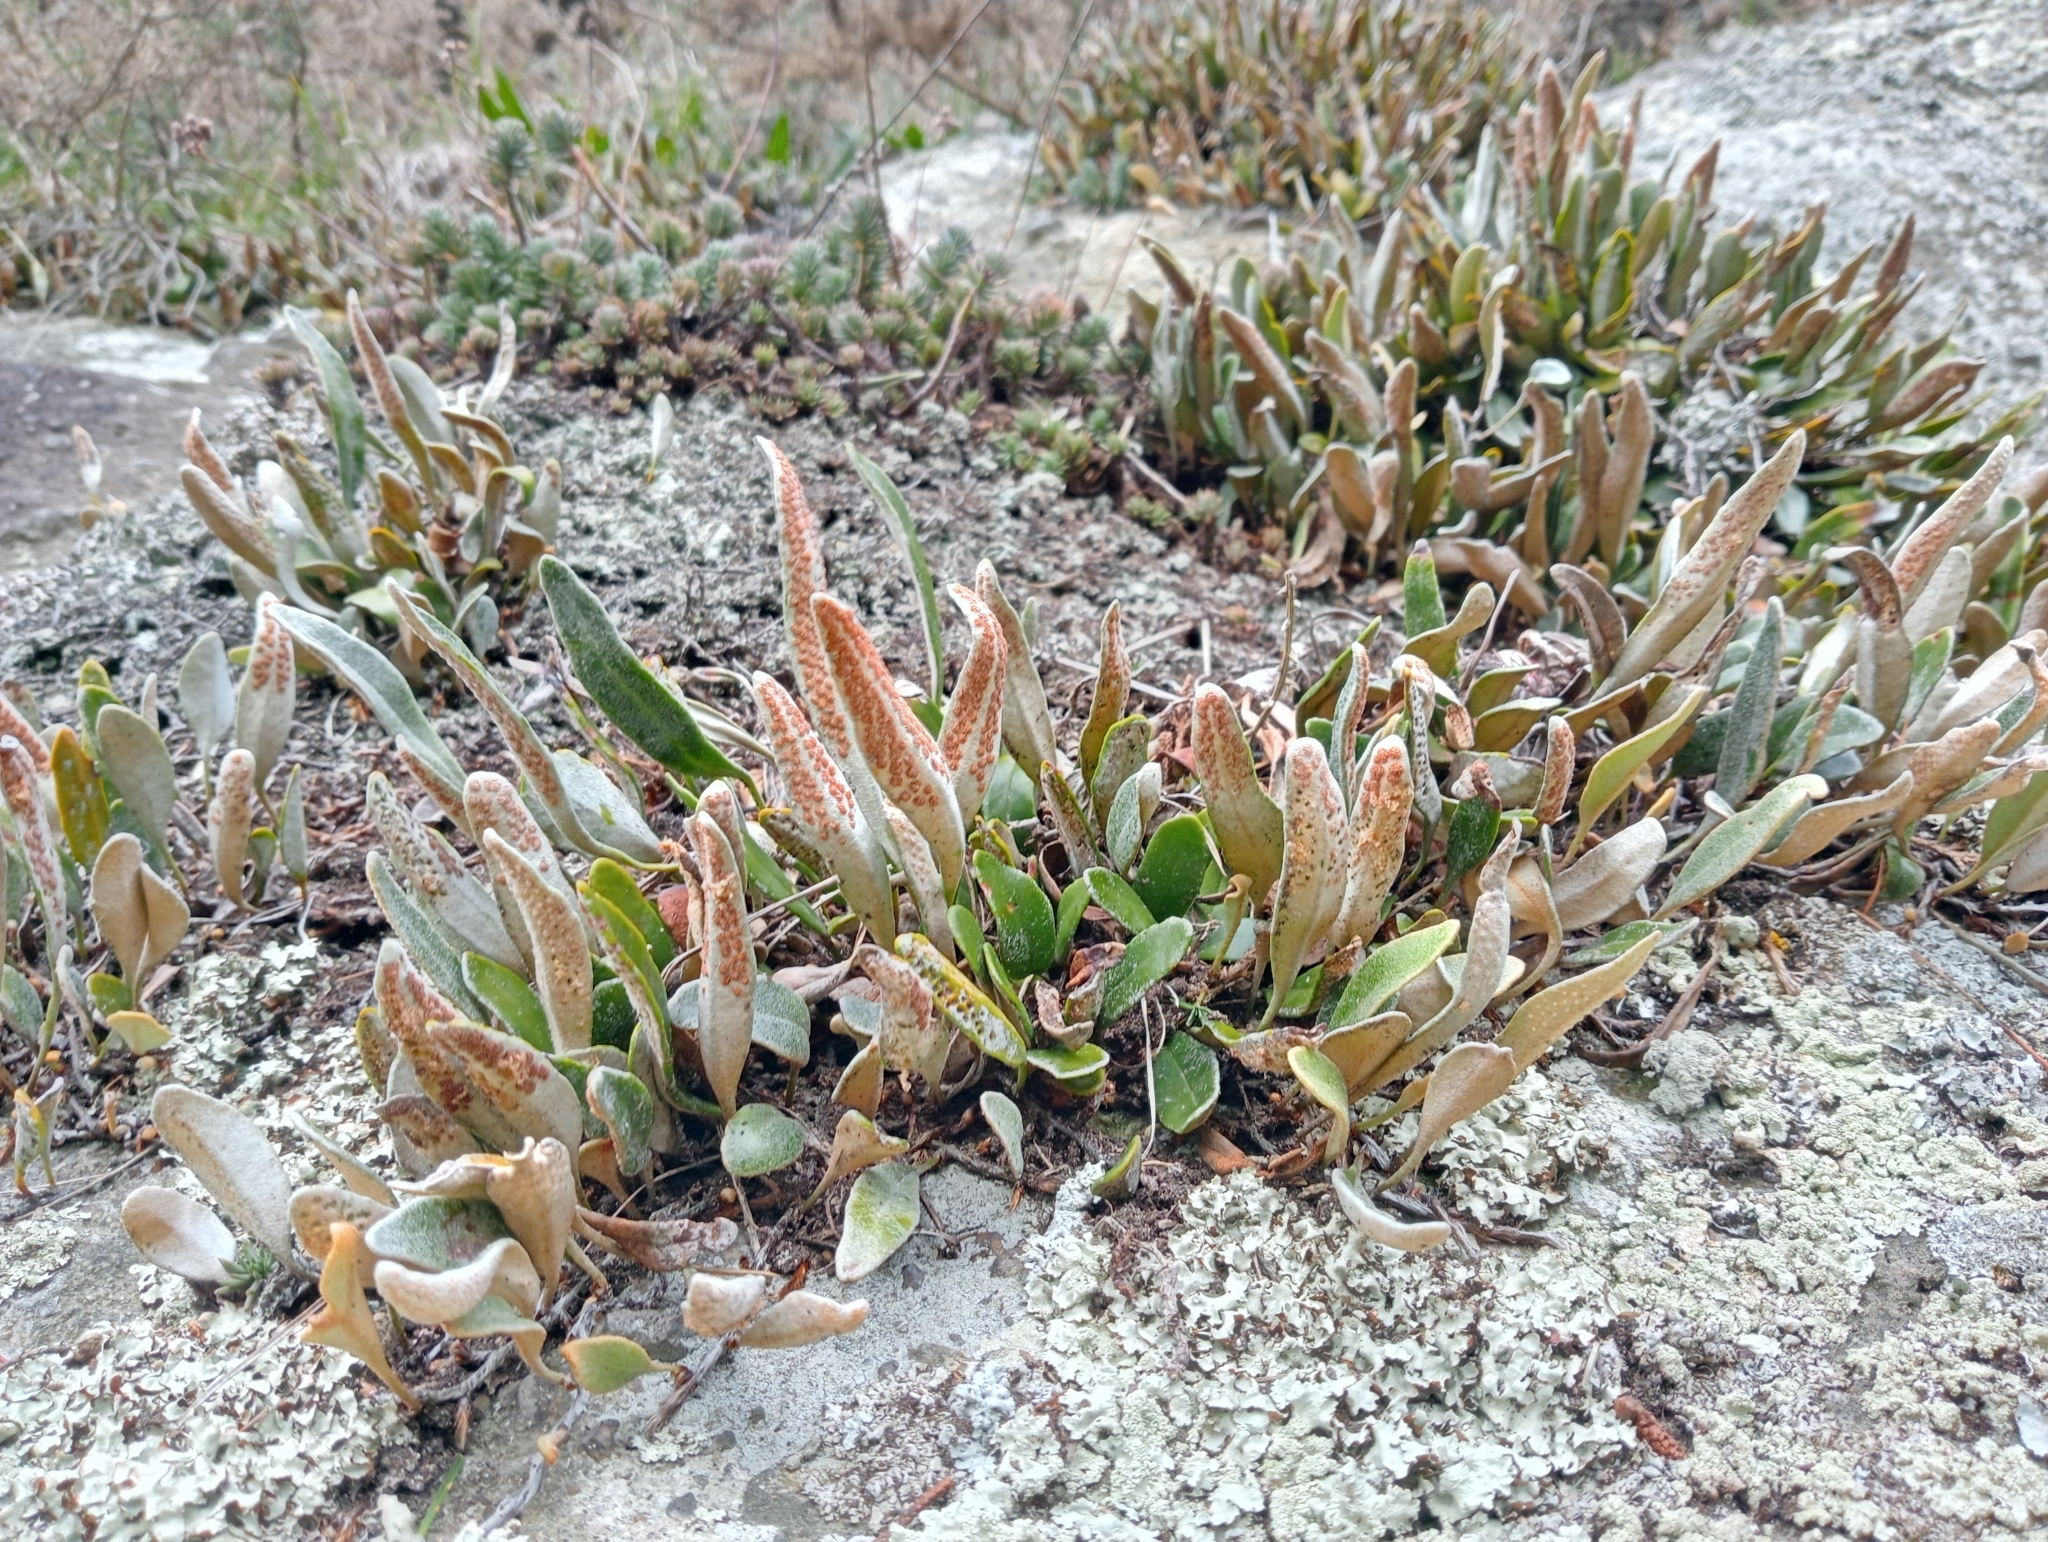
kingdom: Plantae
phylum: Tracheophyta
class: Polypodiopsida
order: Polypodiales
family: Polypodiaceae
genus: Pyrrosia
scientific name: Pyrrosia eleagnifolia
